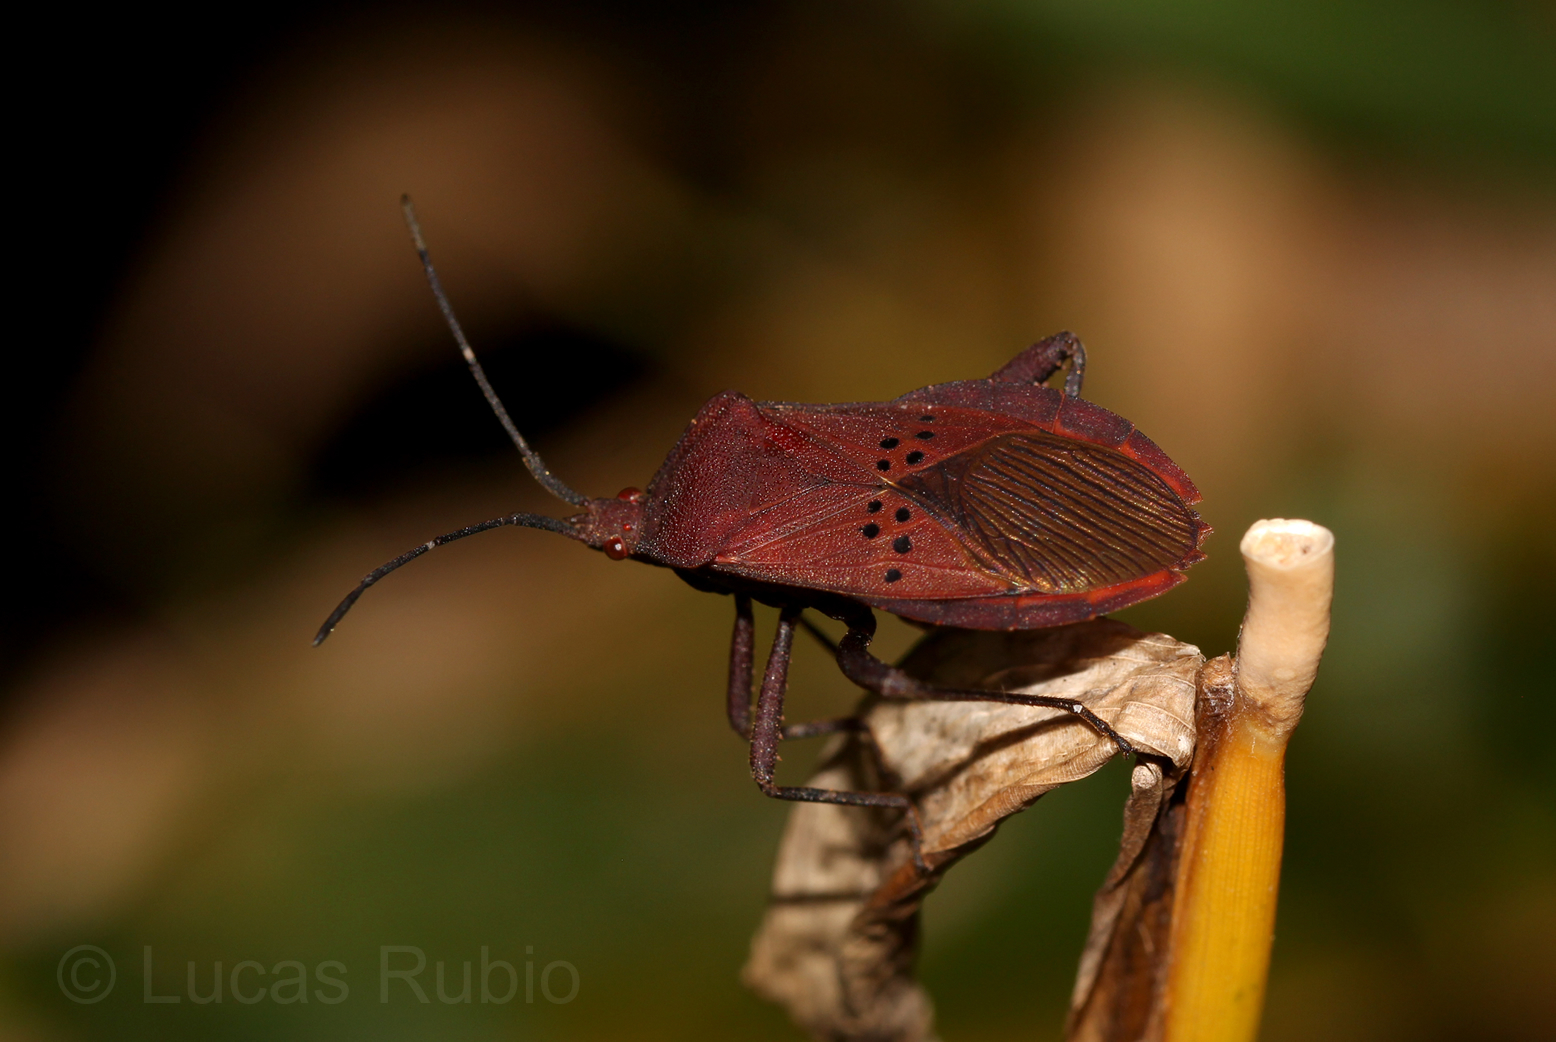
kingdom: Animalia
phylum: Arthropoda
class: Insecta
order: Hemiptera
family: Coreidae
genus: Ugnius
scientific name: Ugnius badius
